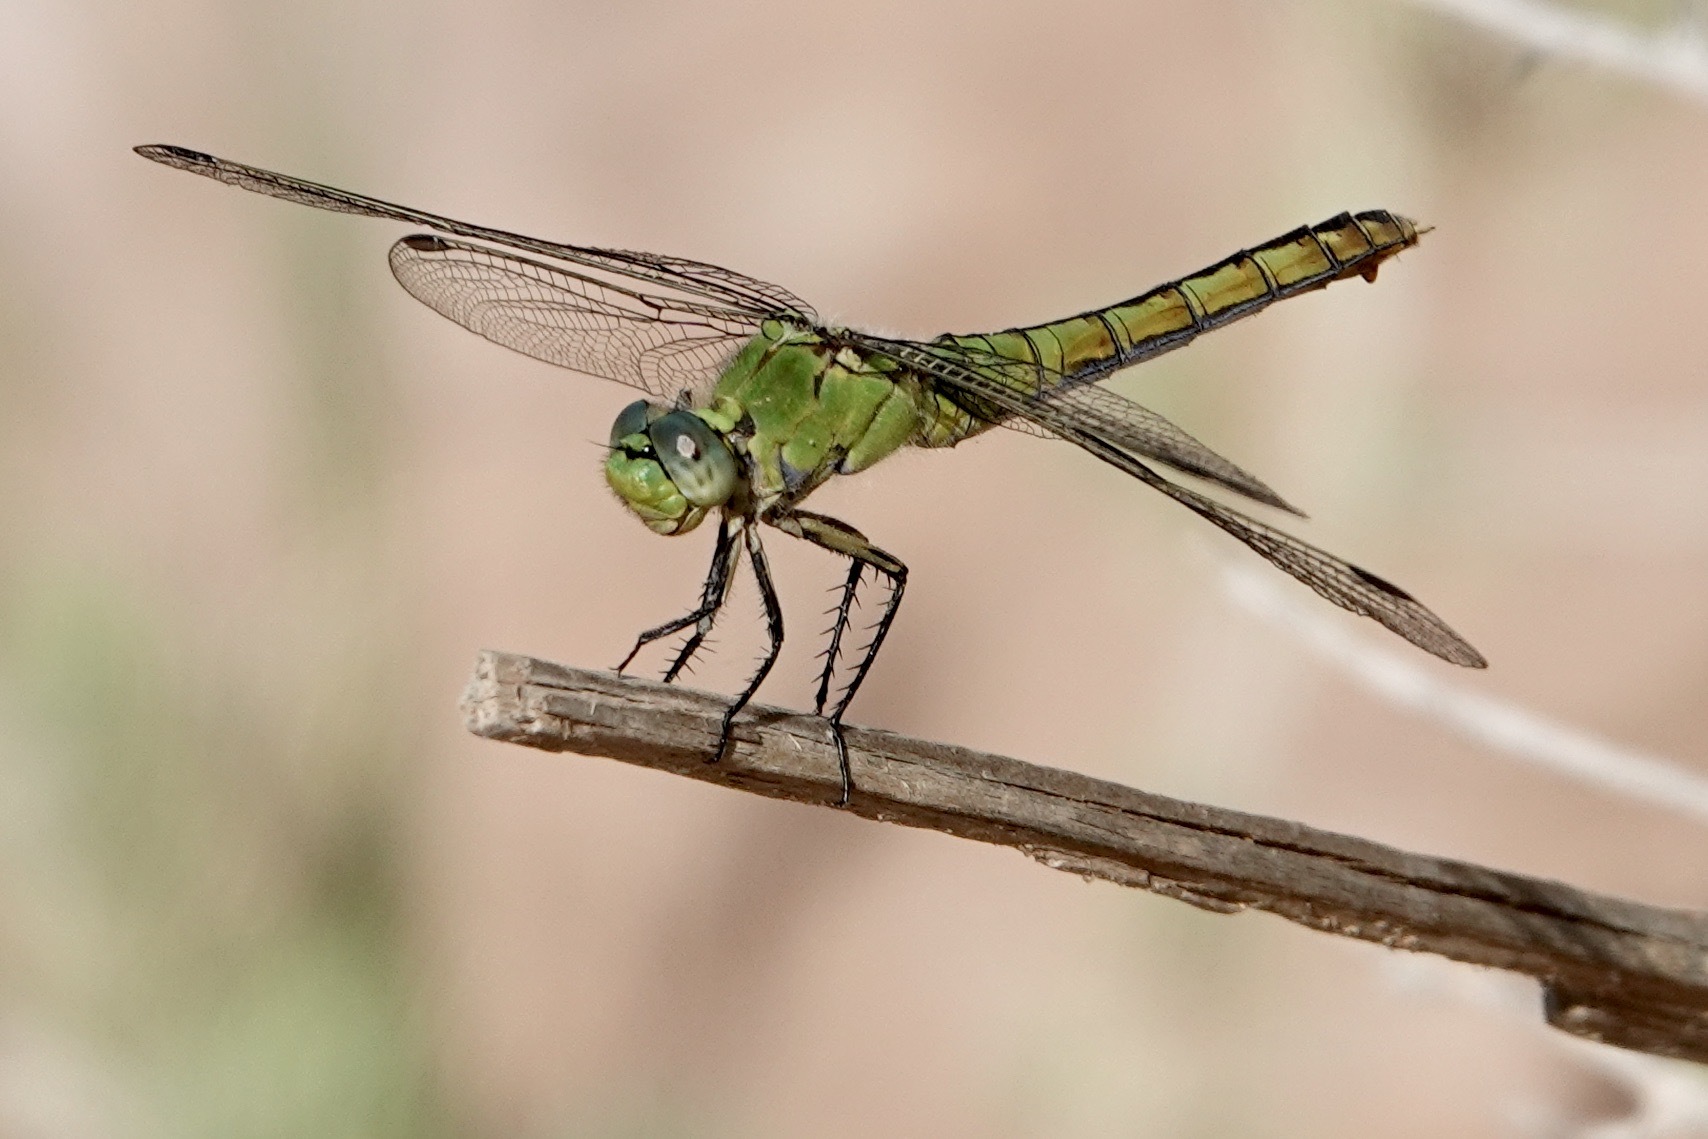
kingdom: Animalia
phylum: Arthropoda
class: Insecta
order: Odonata
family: Libellulidae
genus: Erythemis
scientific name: Erythemis collocata
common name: Western pondhawk
